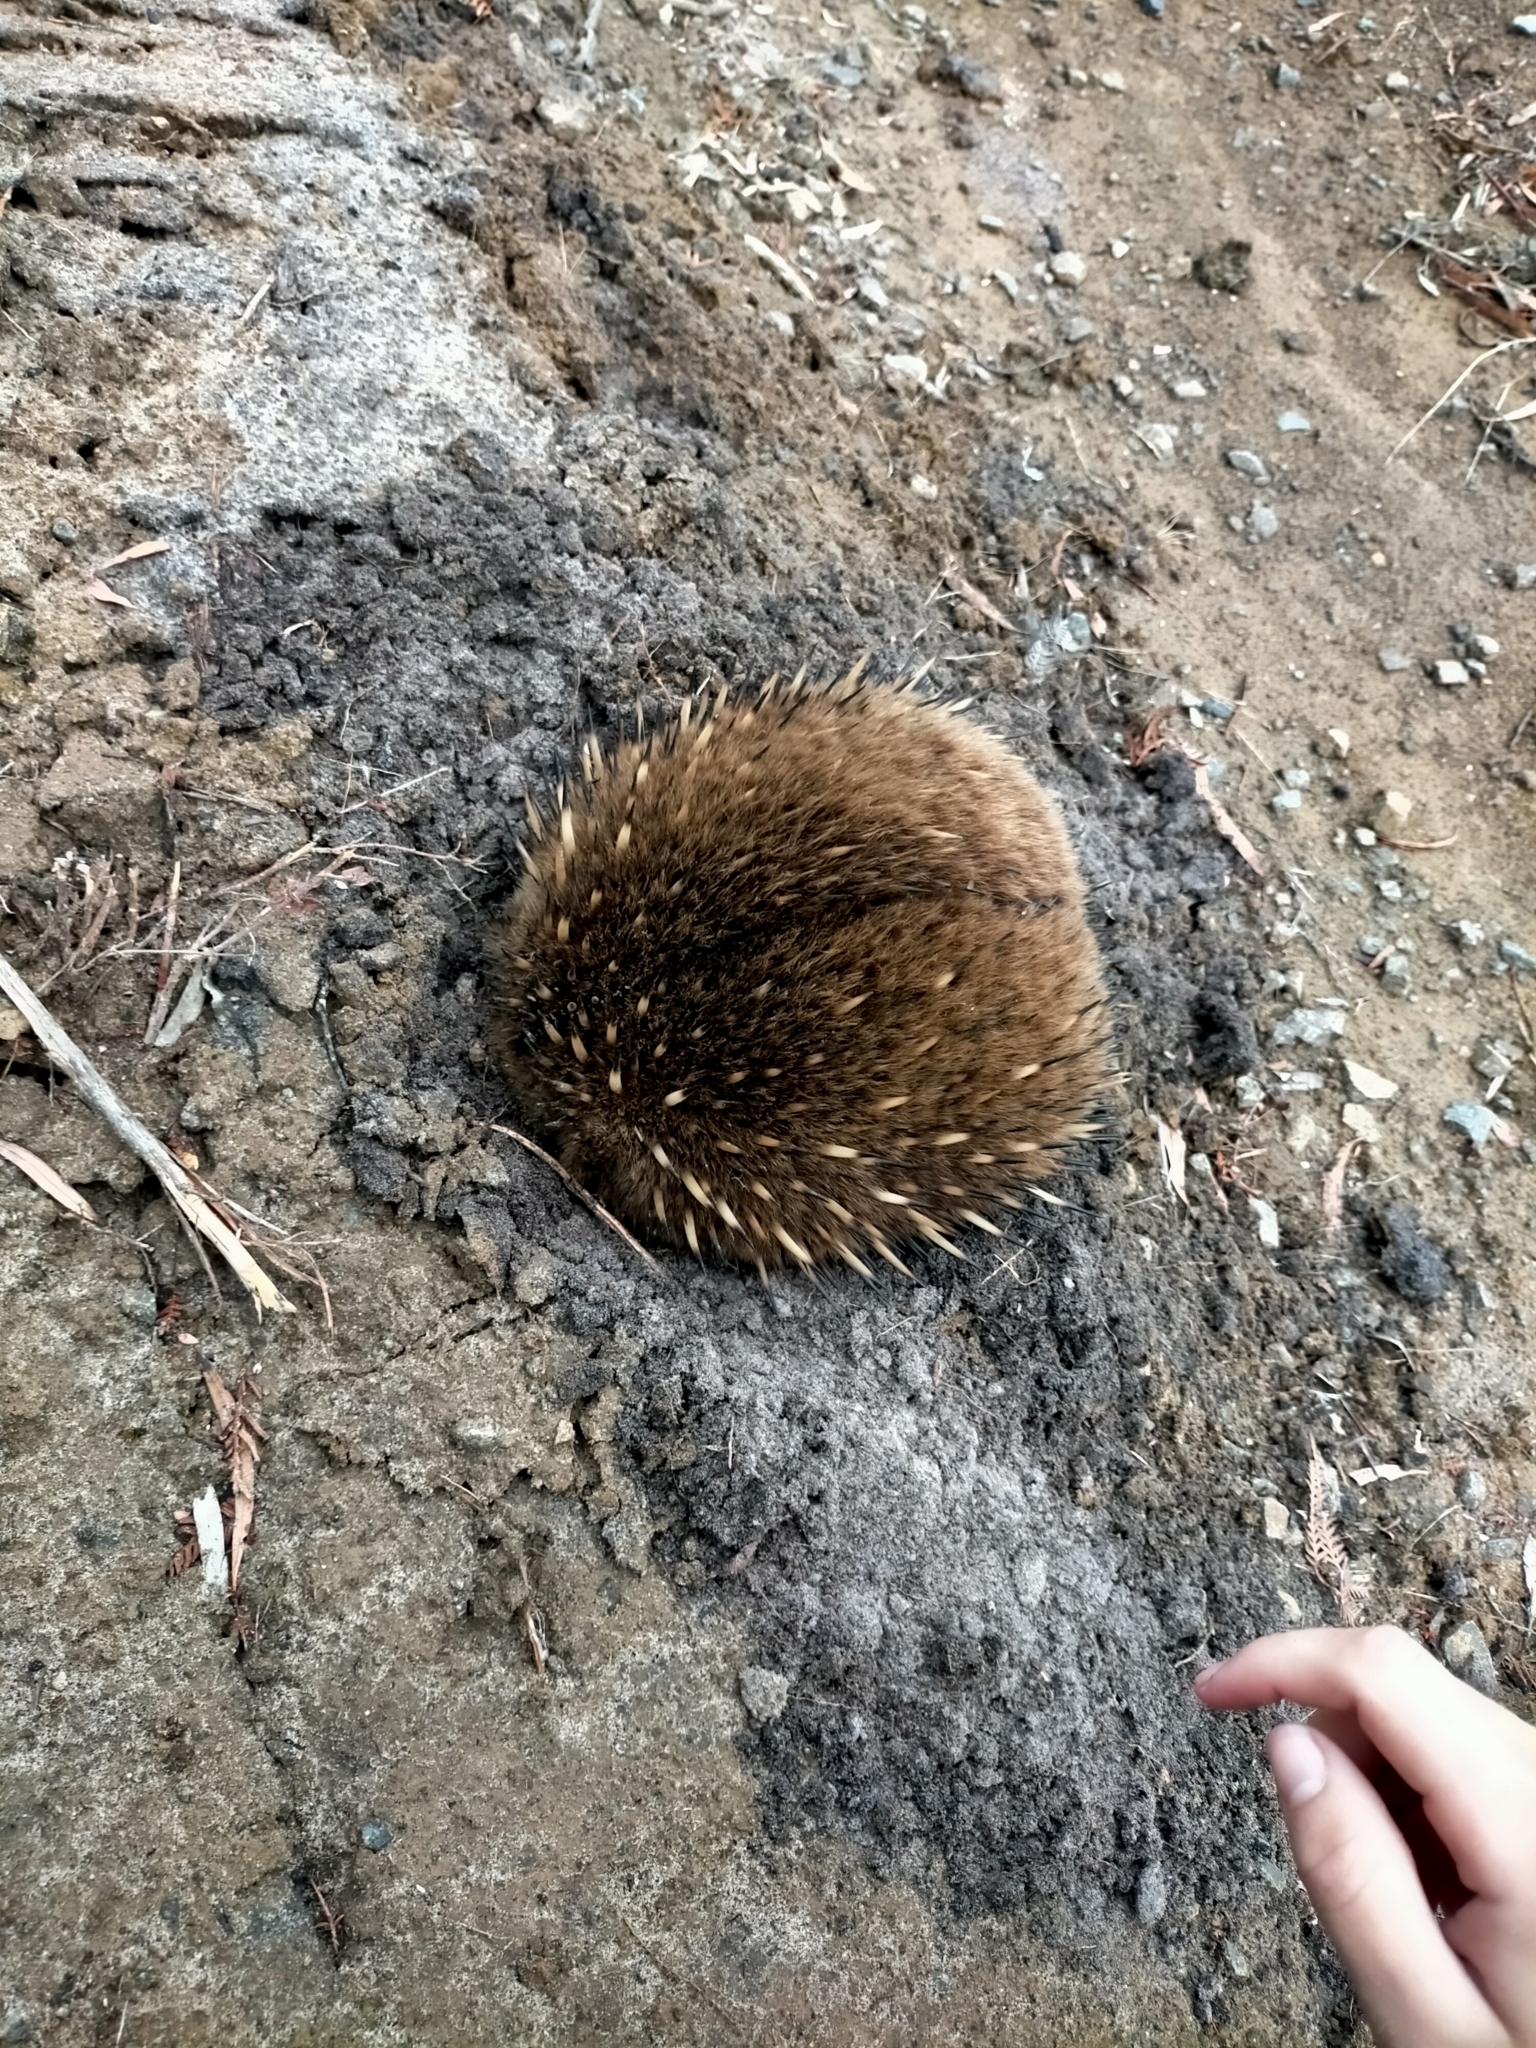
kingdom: Animalia
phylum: Chordata
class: Mammalia
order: Monotremata
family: Tachyglossidae
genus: Tachyglossus
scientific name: Tachyglossus aculeatus
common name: Short-beaked echidna
